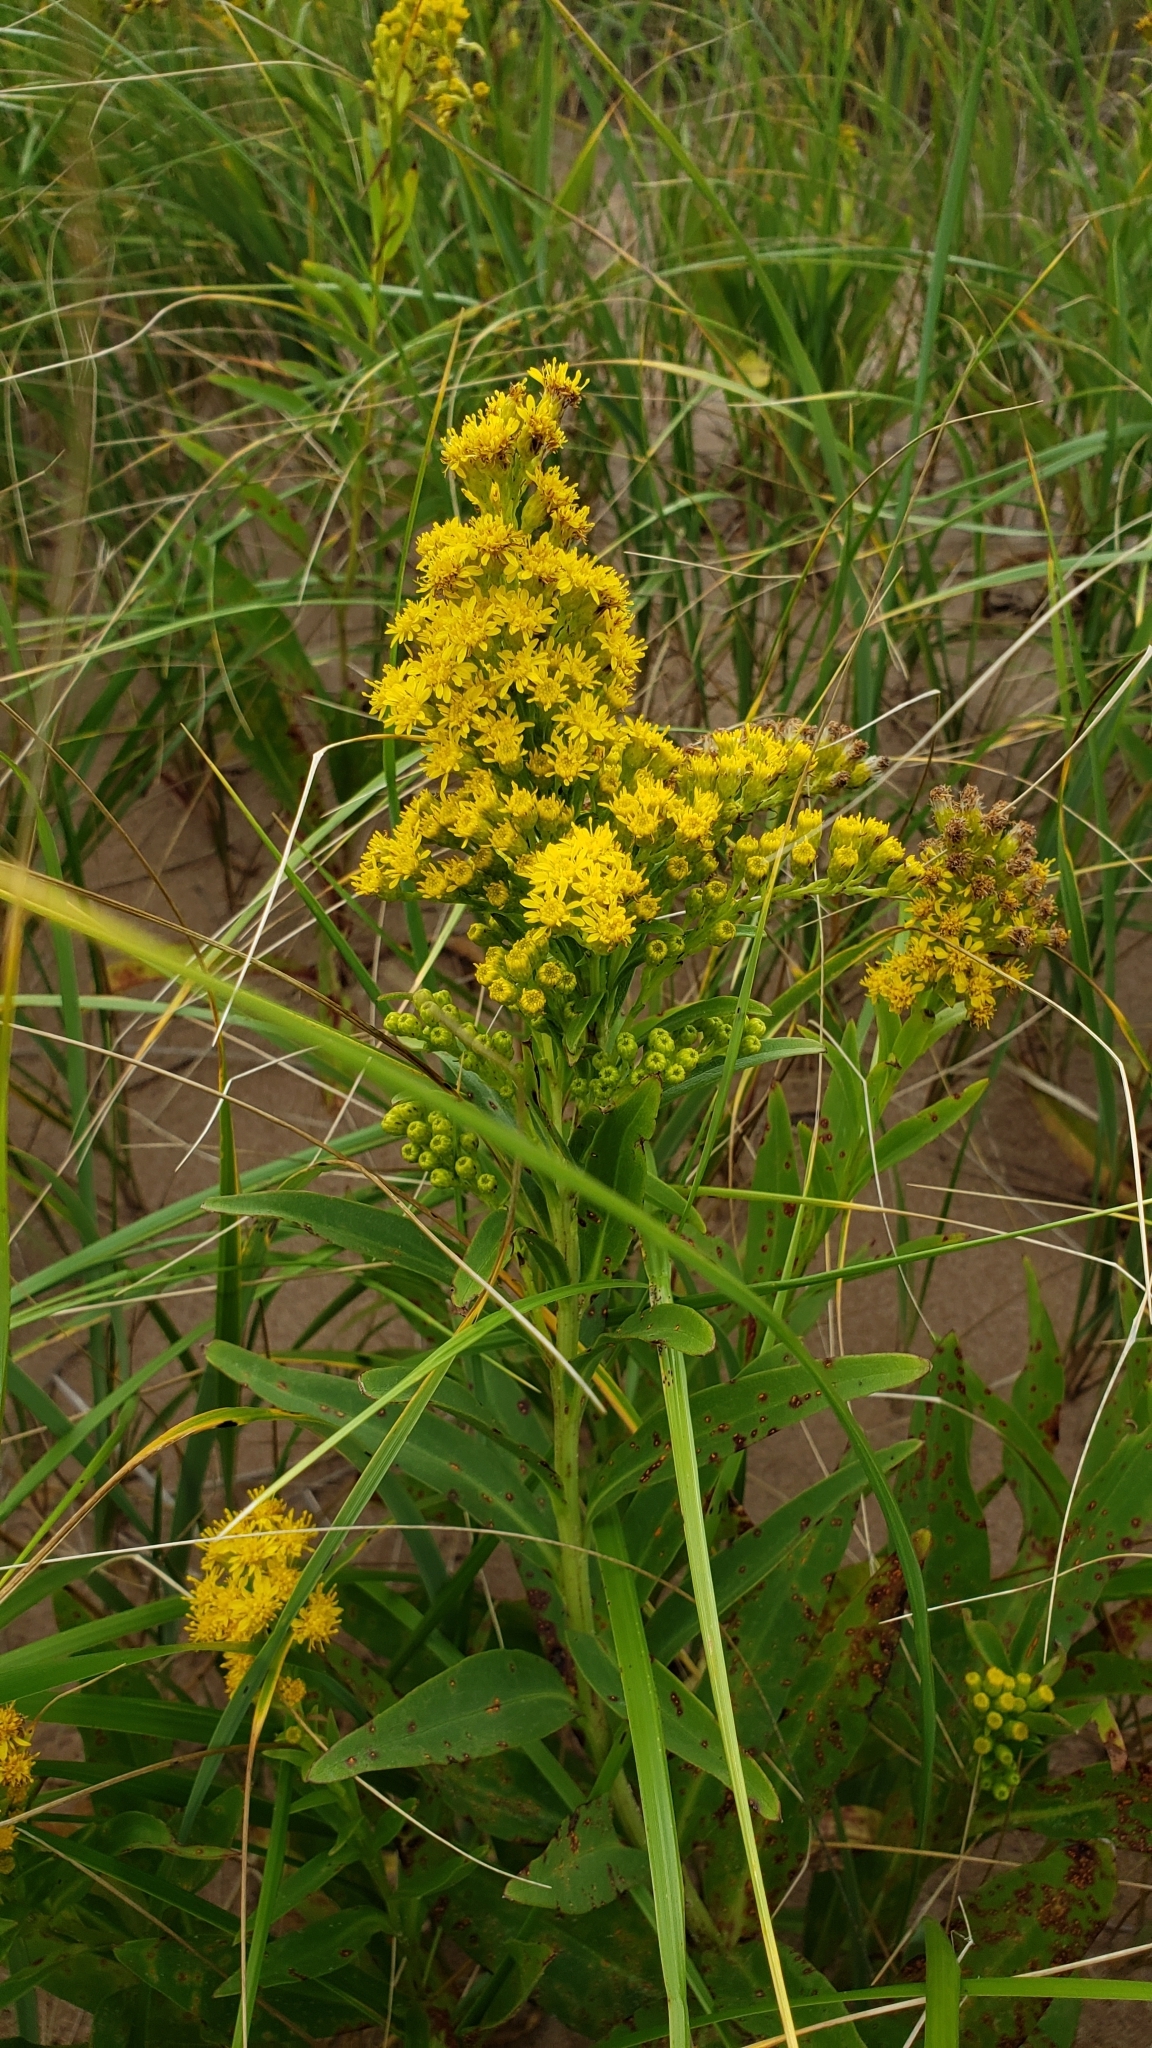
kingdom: Plantae
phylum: Tracheophyta
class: Magnoliopsida
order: Asterales
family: Asteraceae
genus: Solidago
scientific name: Solidago sempervirens
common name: Salt-marsh goldenrod
